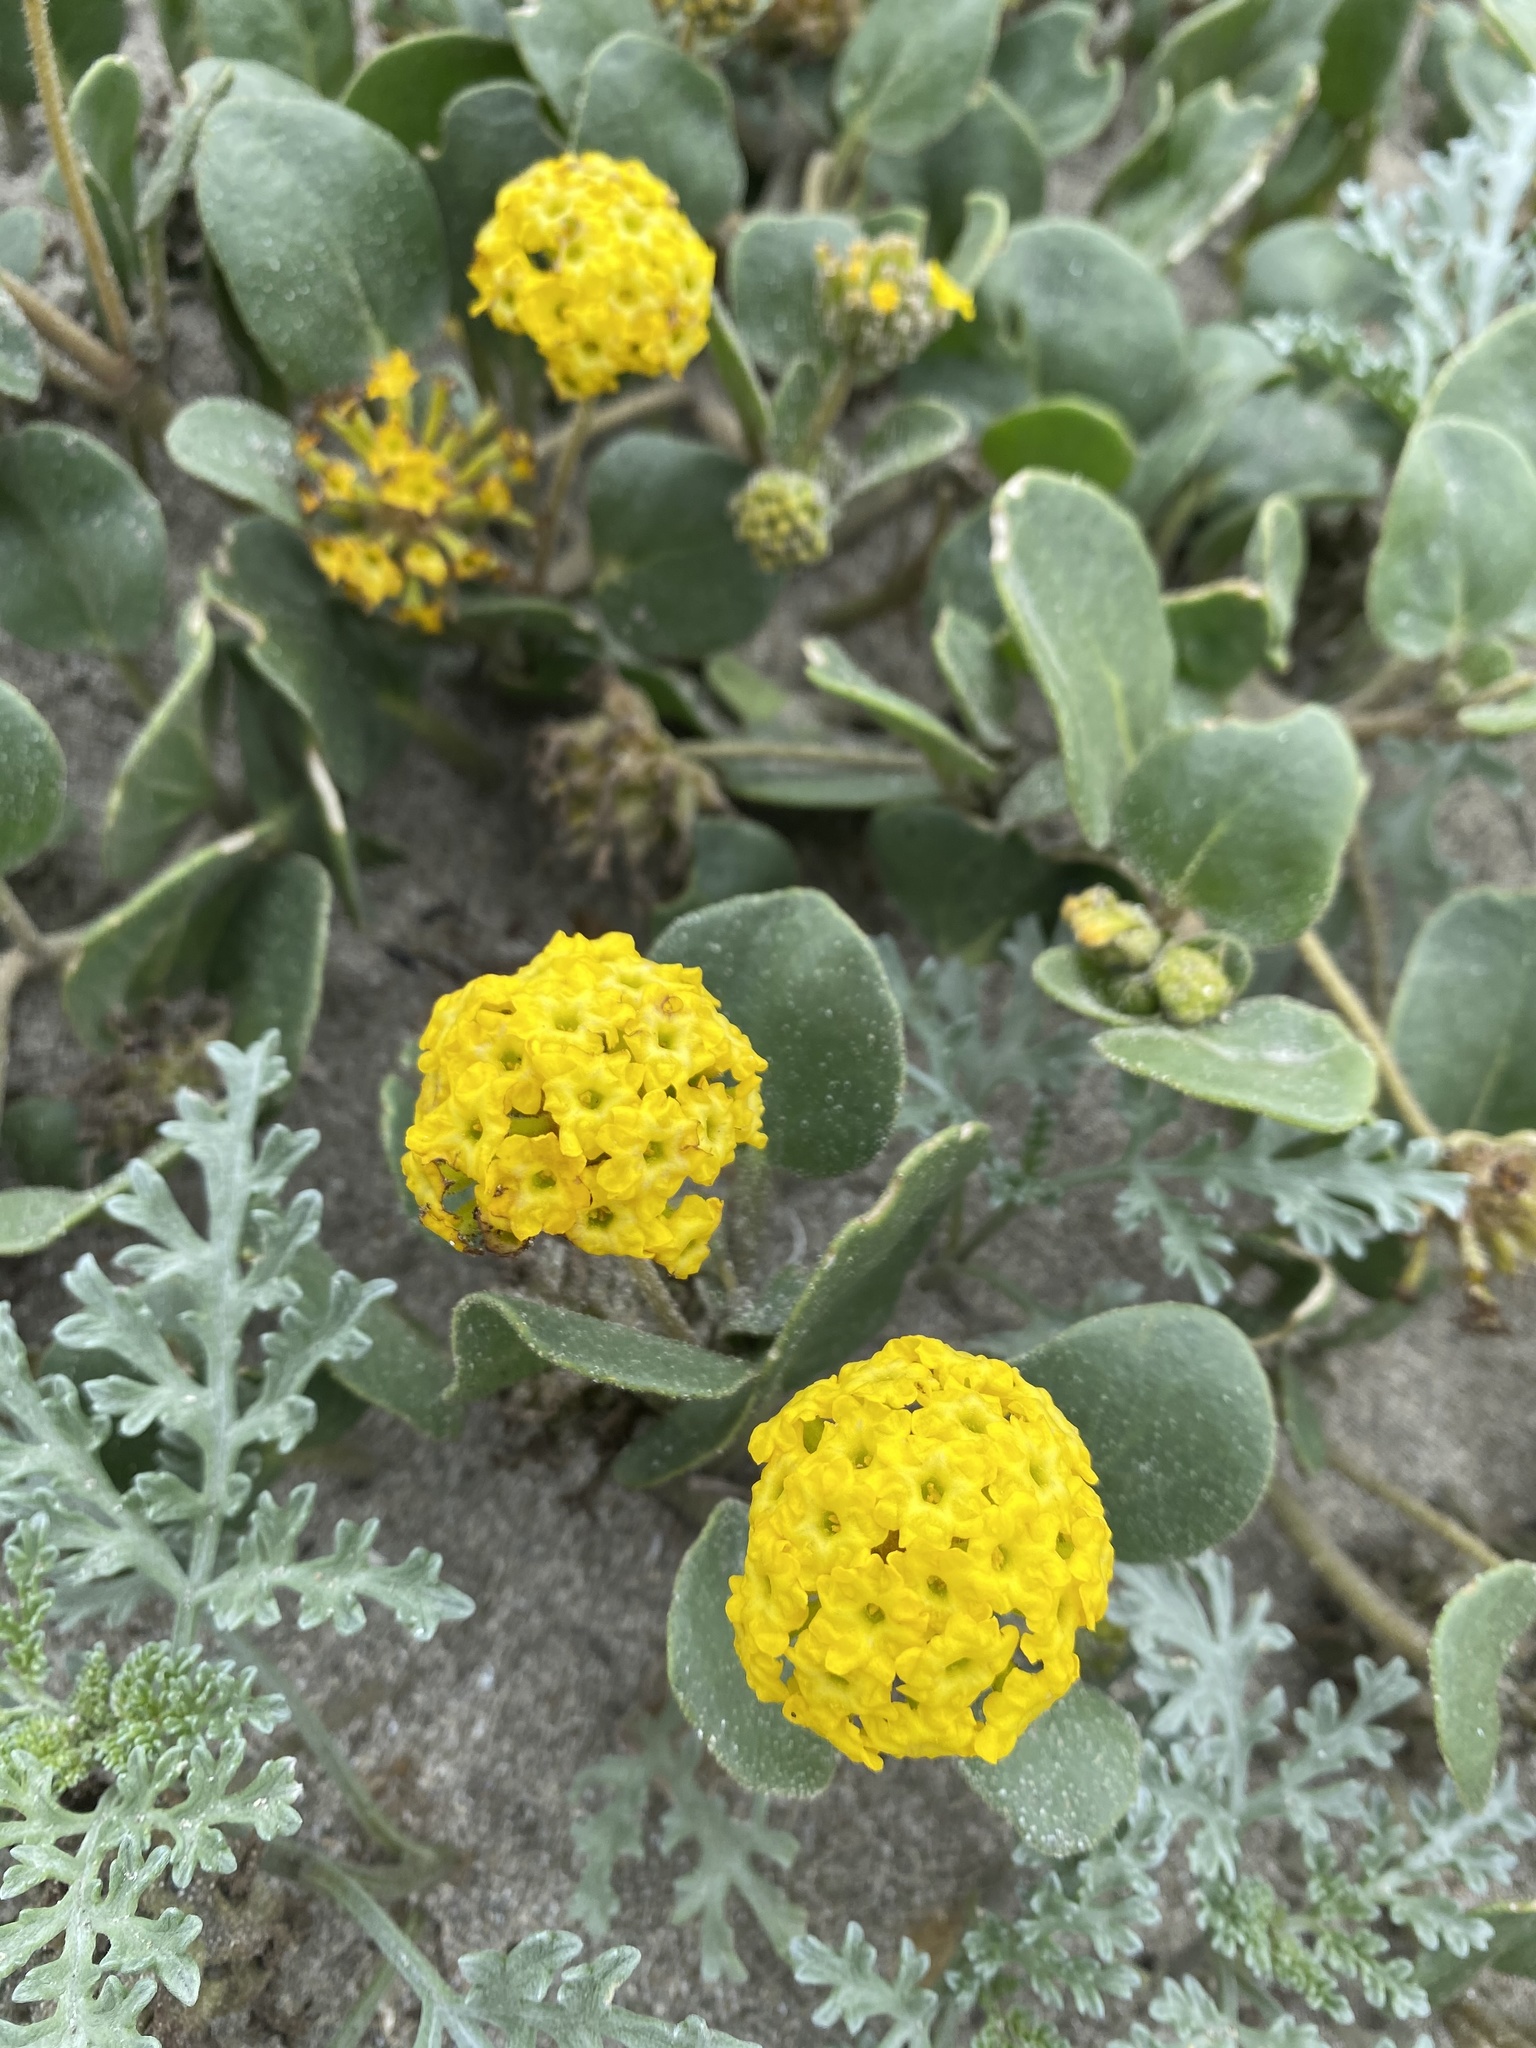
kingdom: Plantae
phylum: Tracheophyta
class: Magnoliopsida
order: Caryophyllales
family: Nyctaginaceae
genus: Abronia
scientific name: Abronia latifolia
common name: Yellow sand-verbena
